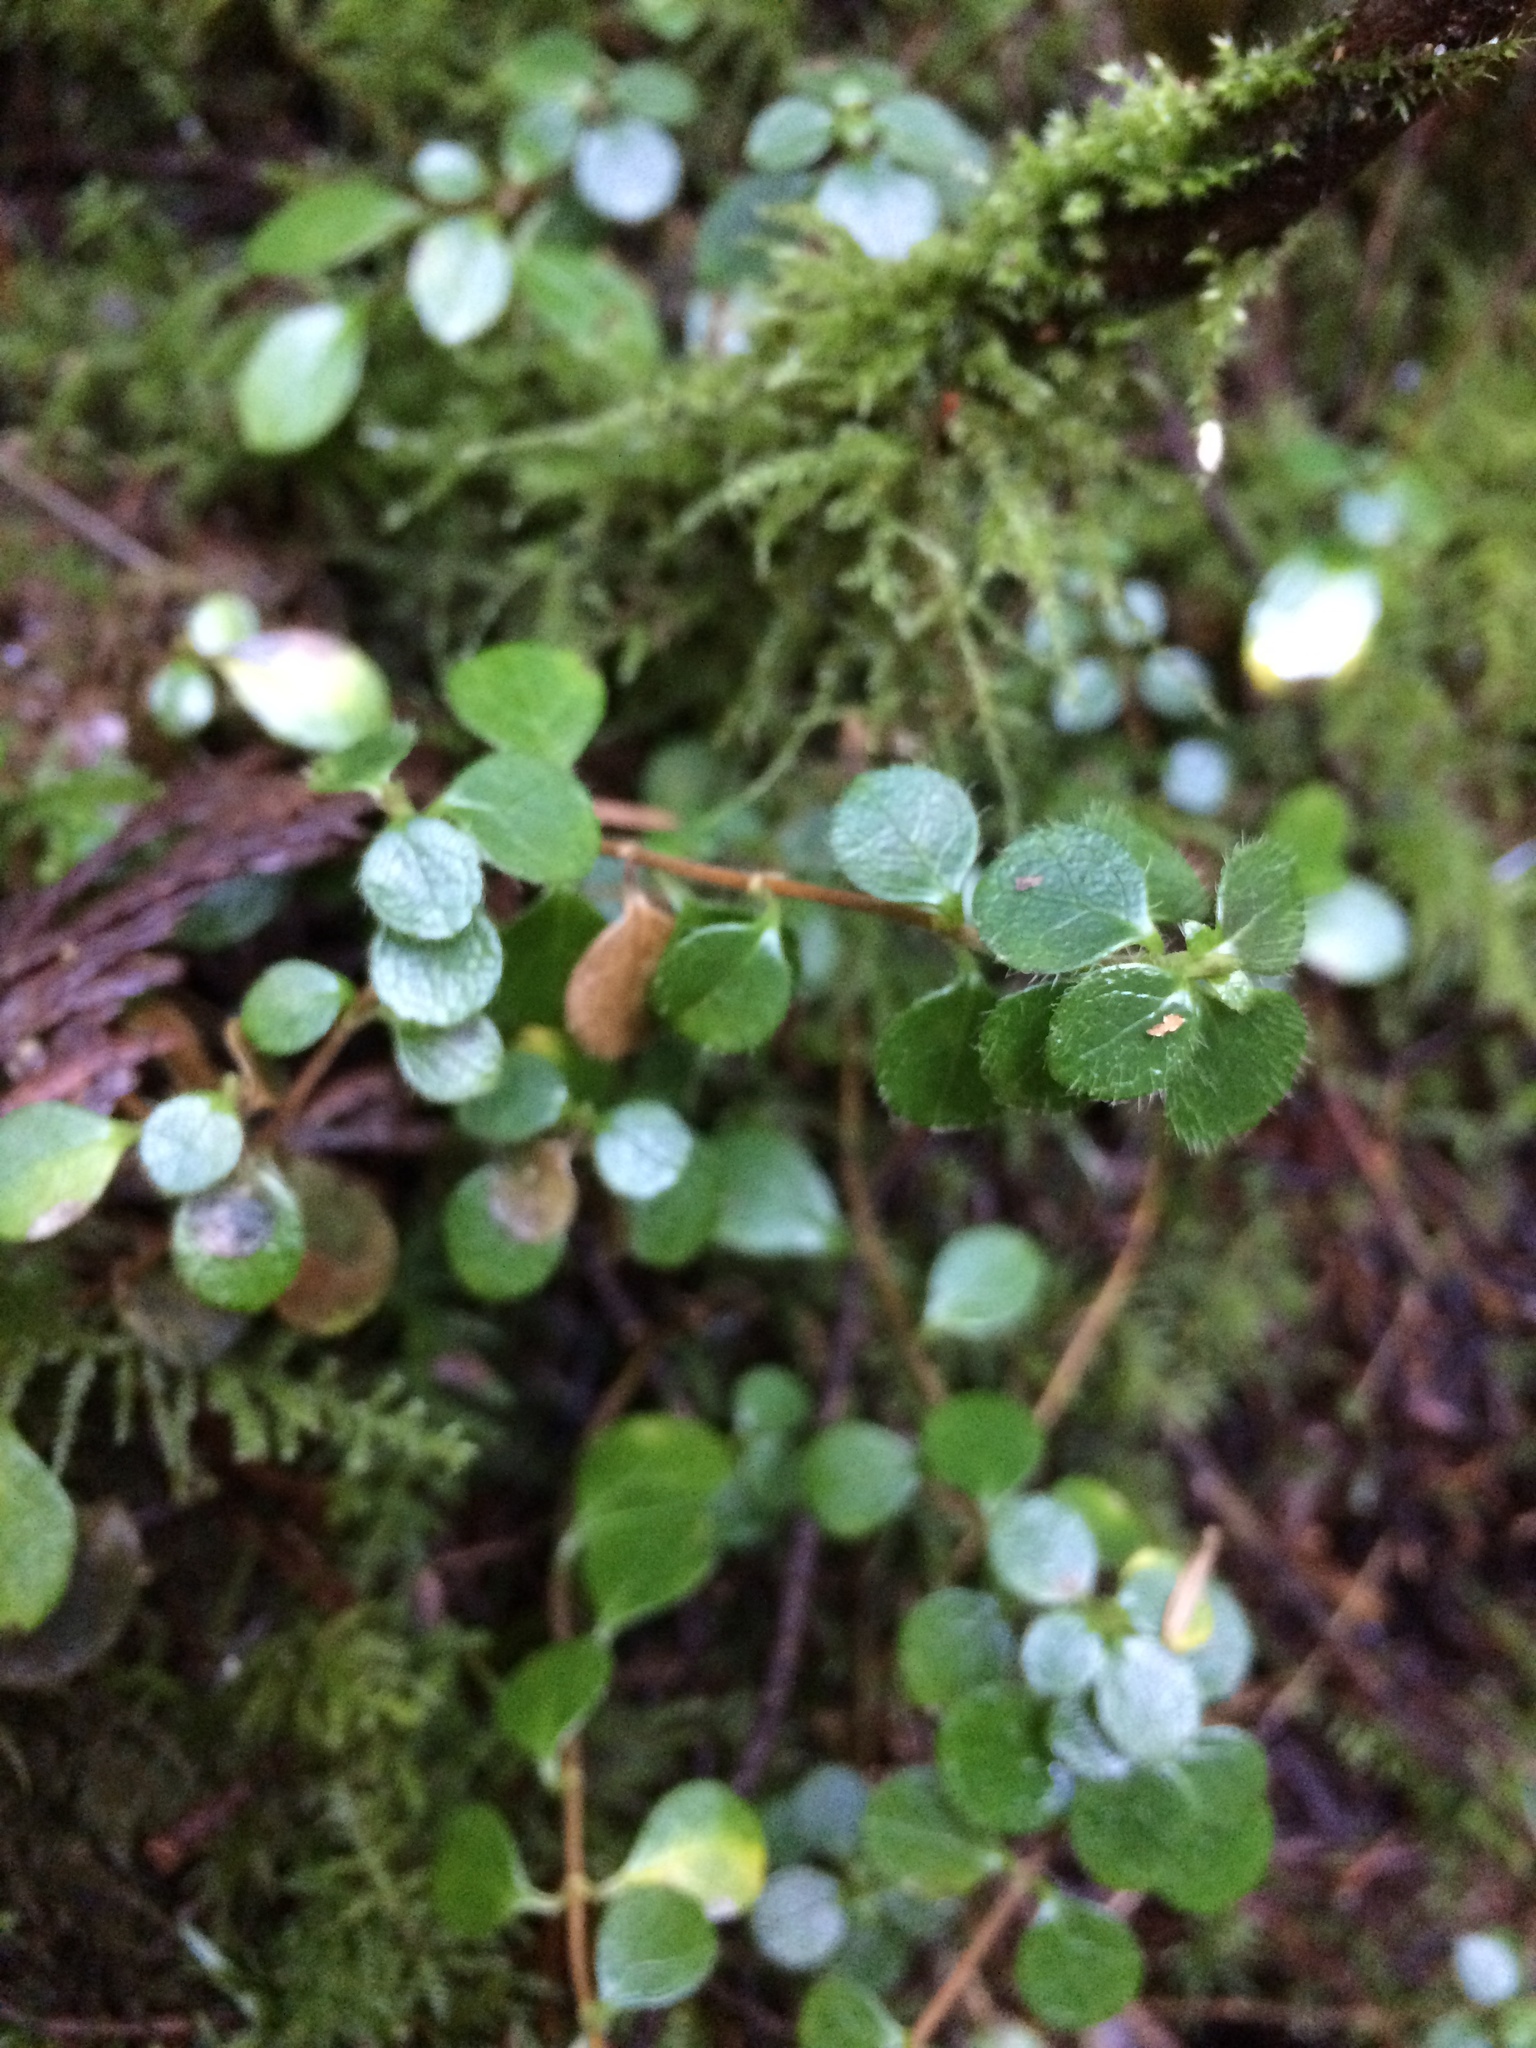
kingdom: Plantae
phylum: Tracheophyta
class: Magnoliopsida
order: Dipsacales
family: Caprifoliaceae
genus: Linnaea
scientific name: Linnaea borealis
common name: Twinflower
